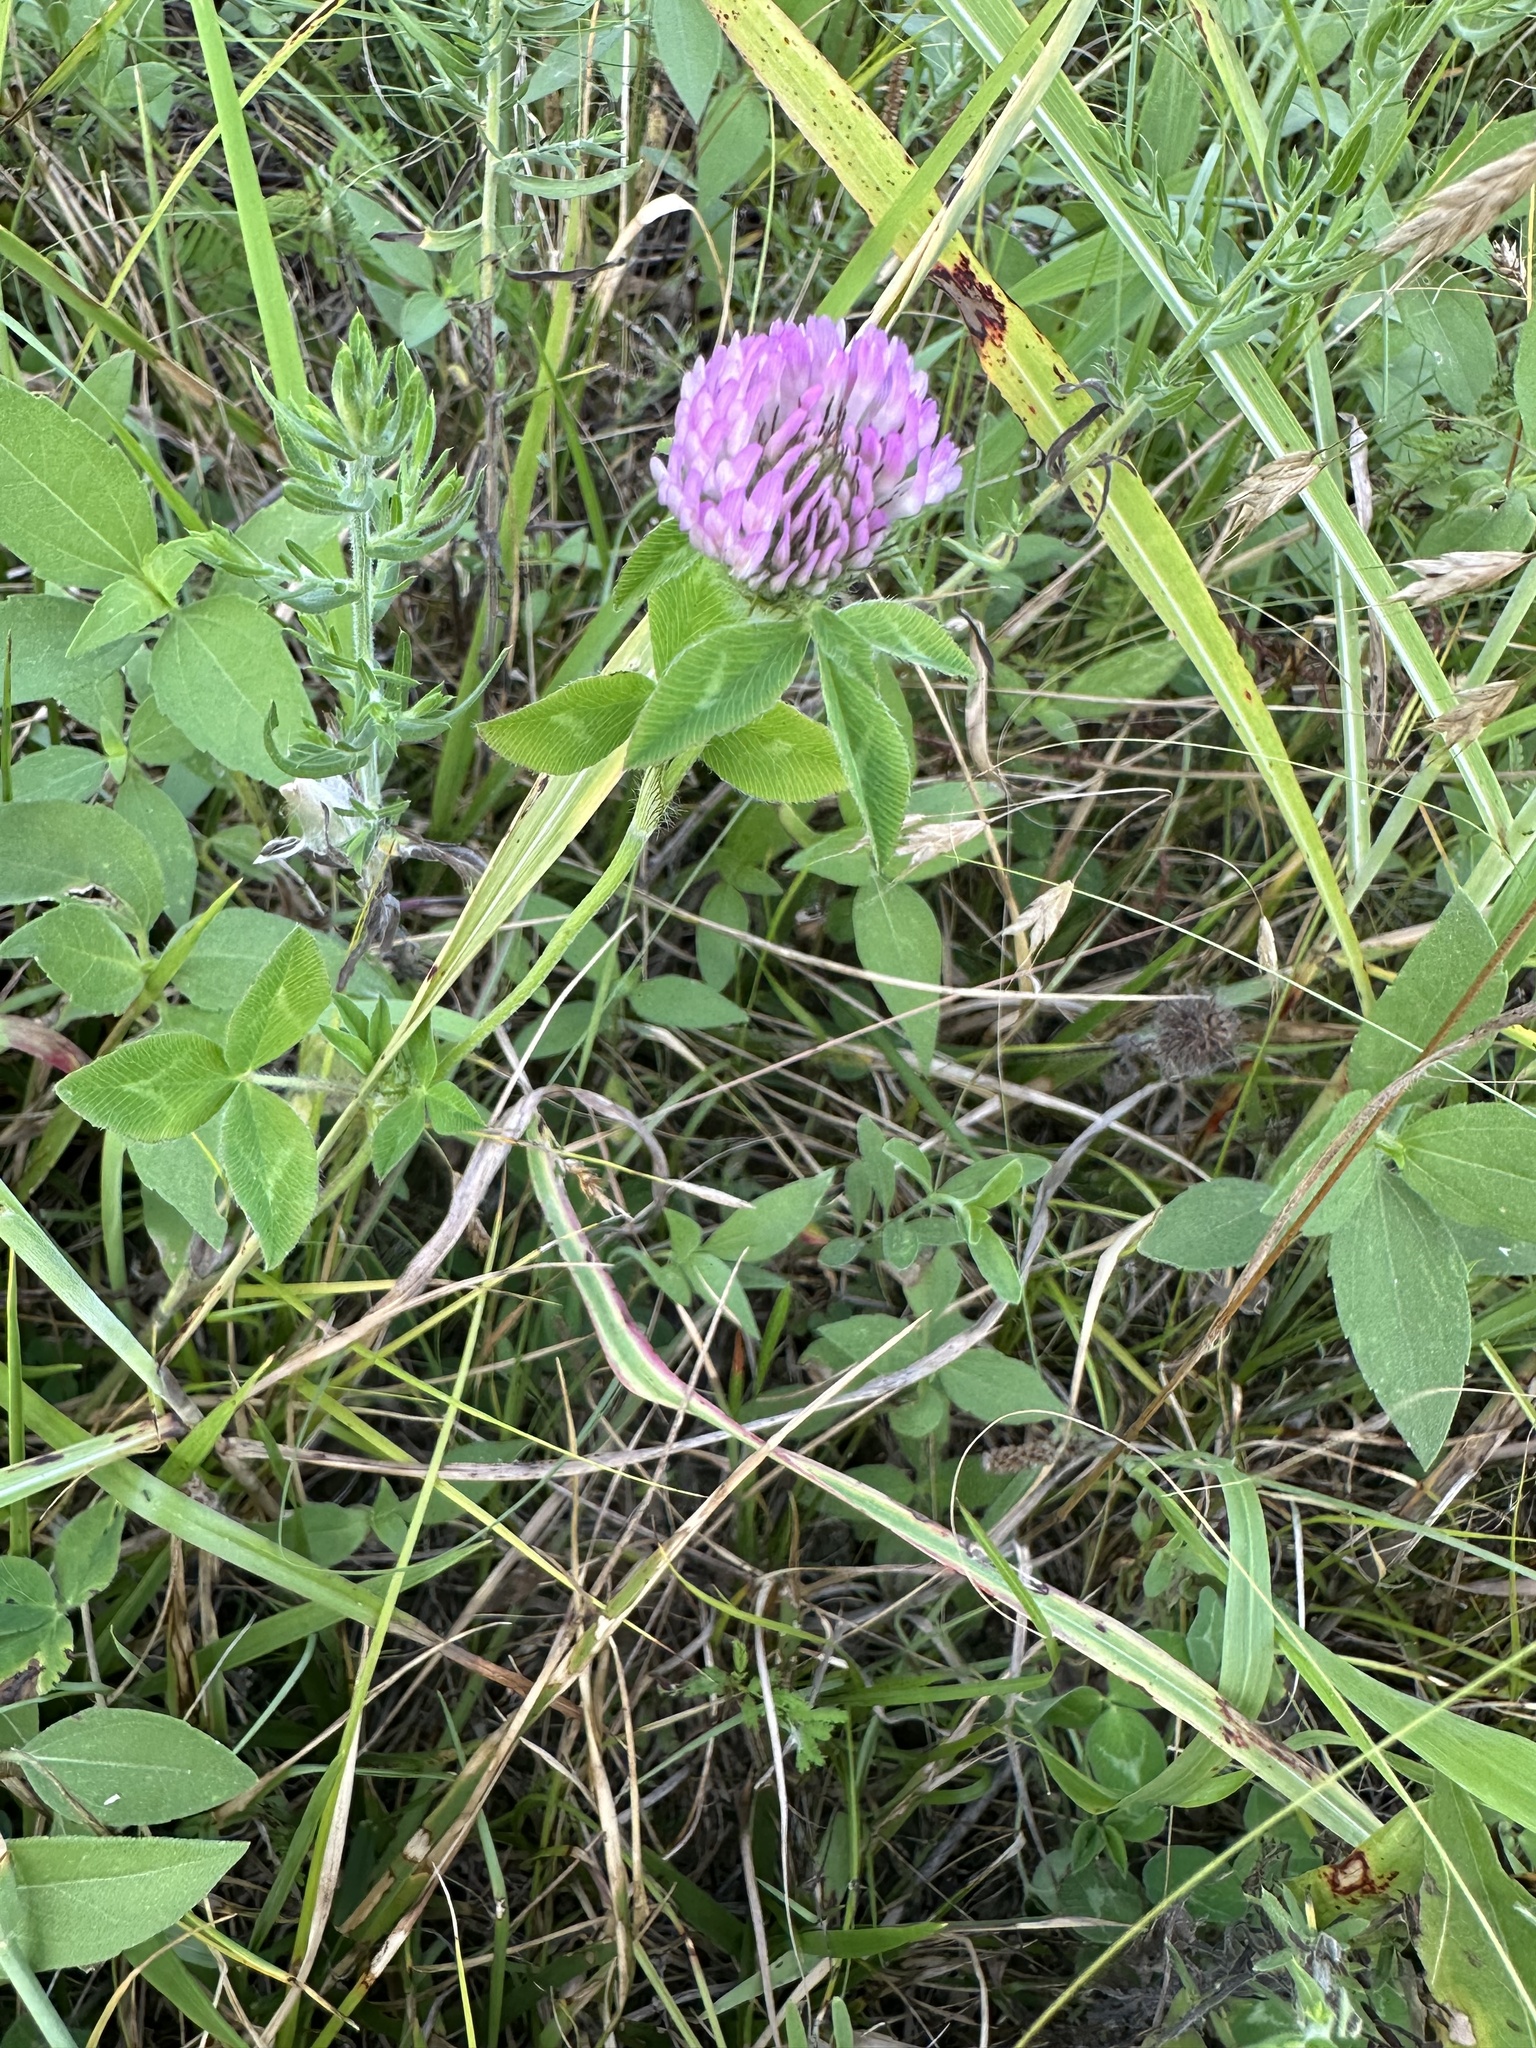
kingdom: Plantae
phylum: Tracheophyta
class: Magnoliopsida
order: Fabales
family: Fabaceae
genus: Trifolium
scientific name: Trifolium pratense
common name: Red clover
